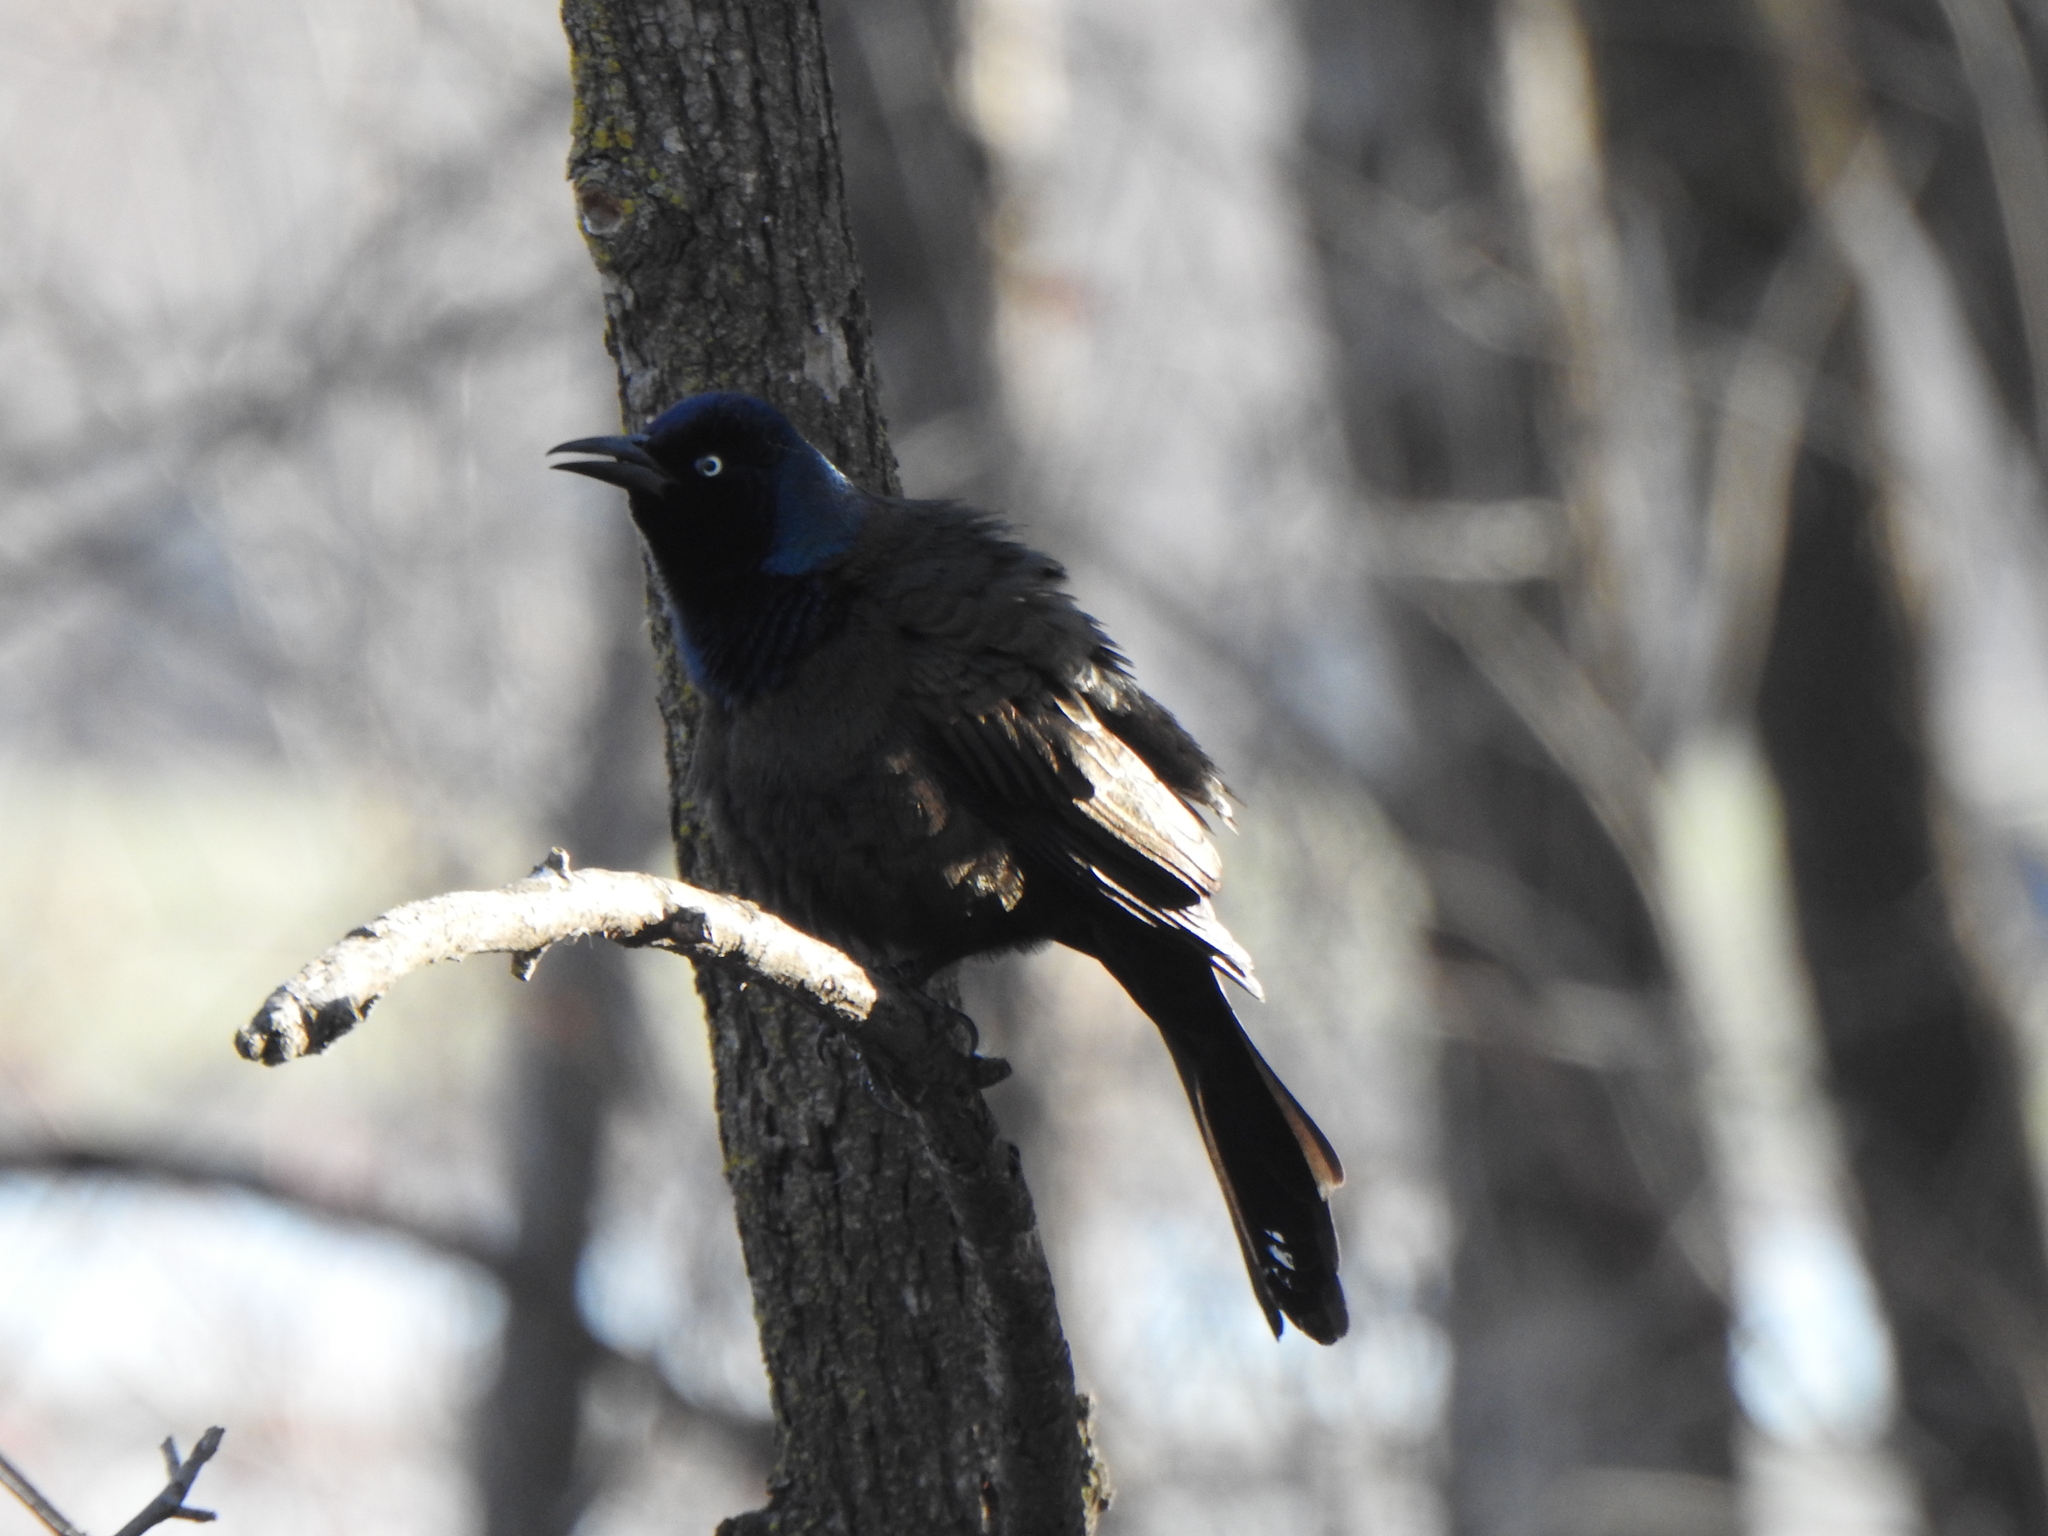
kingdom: Animalia
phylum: Chordata
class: Aves
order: Passeriformes
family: Icteridae
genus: Quiscalus
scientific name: Quiscalus quiscula
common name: Common grackle
